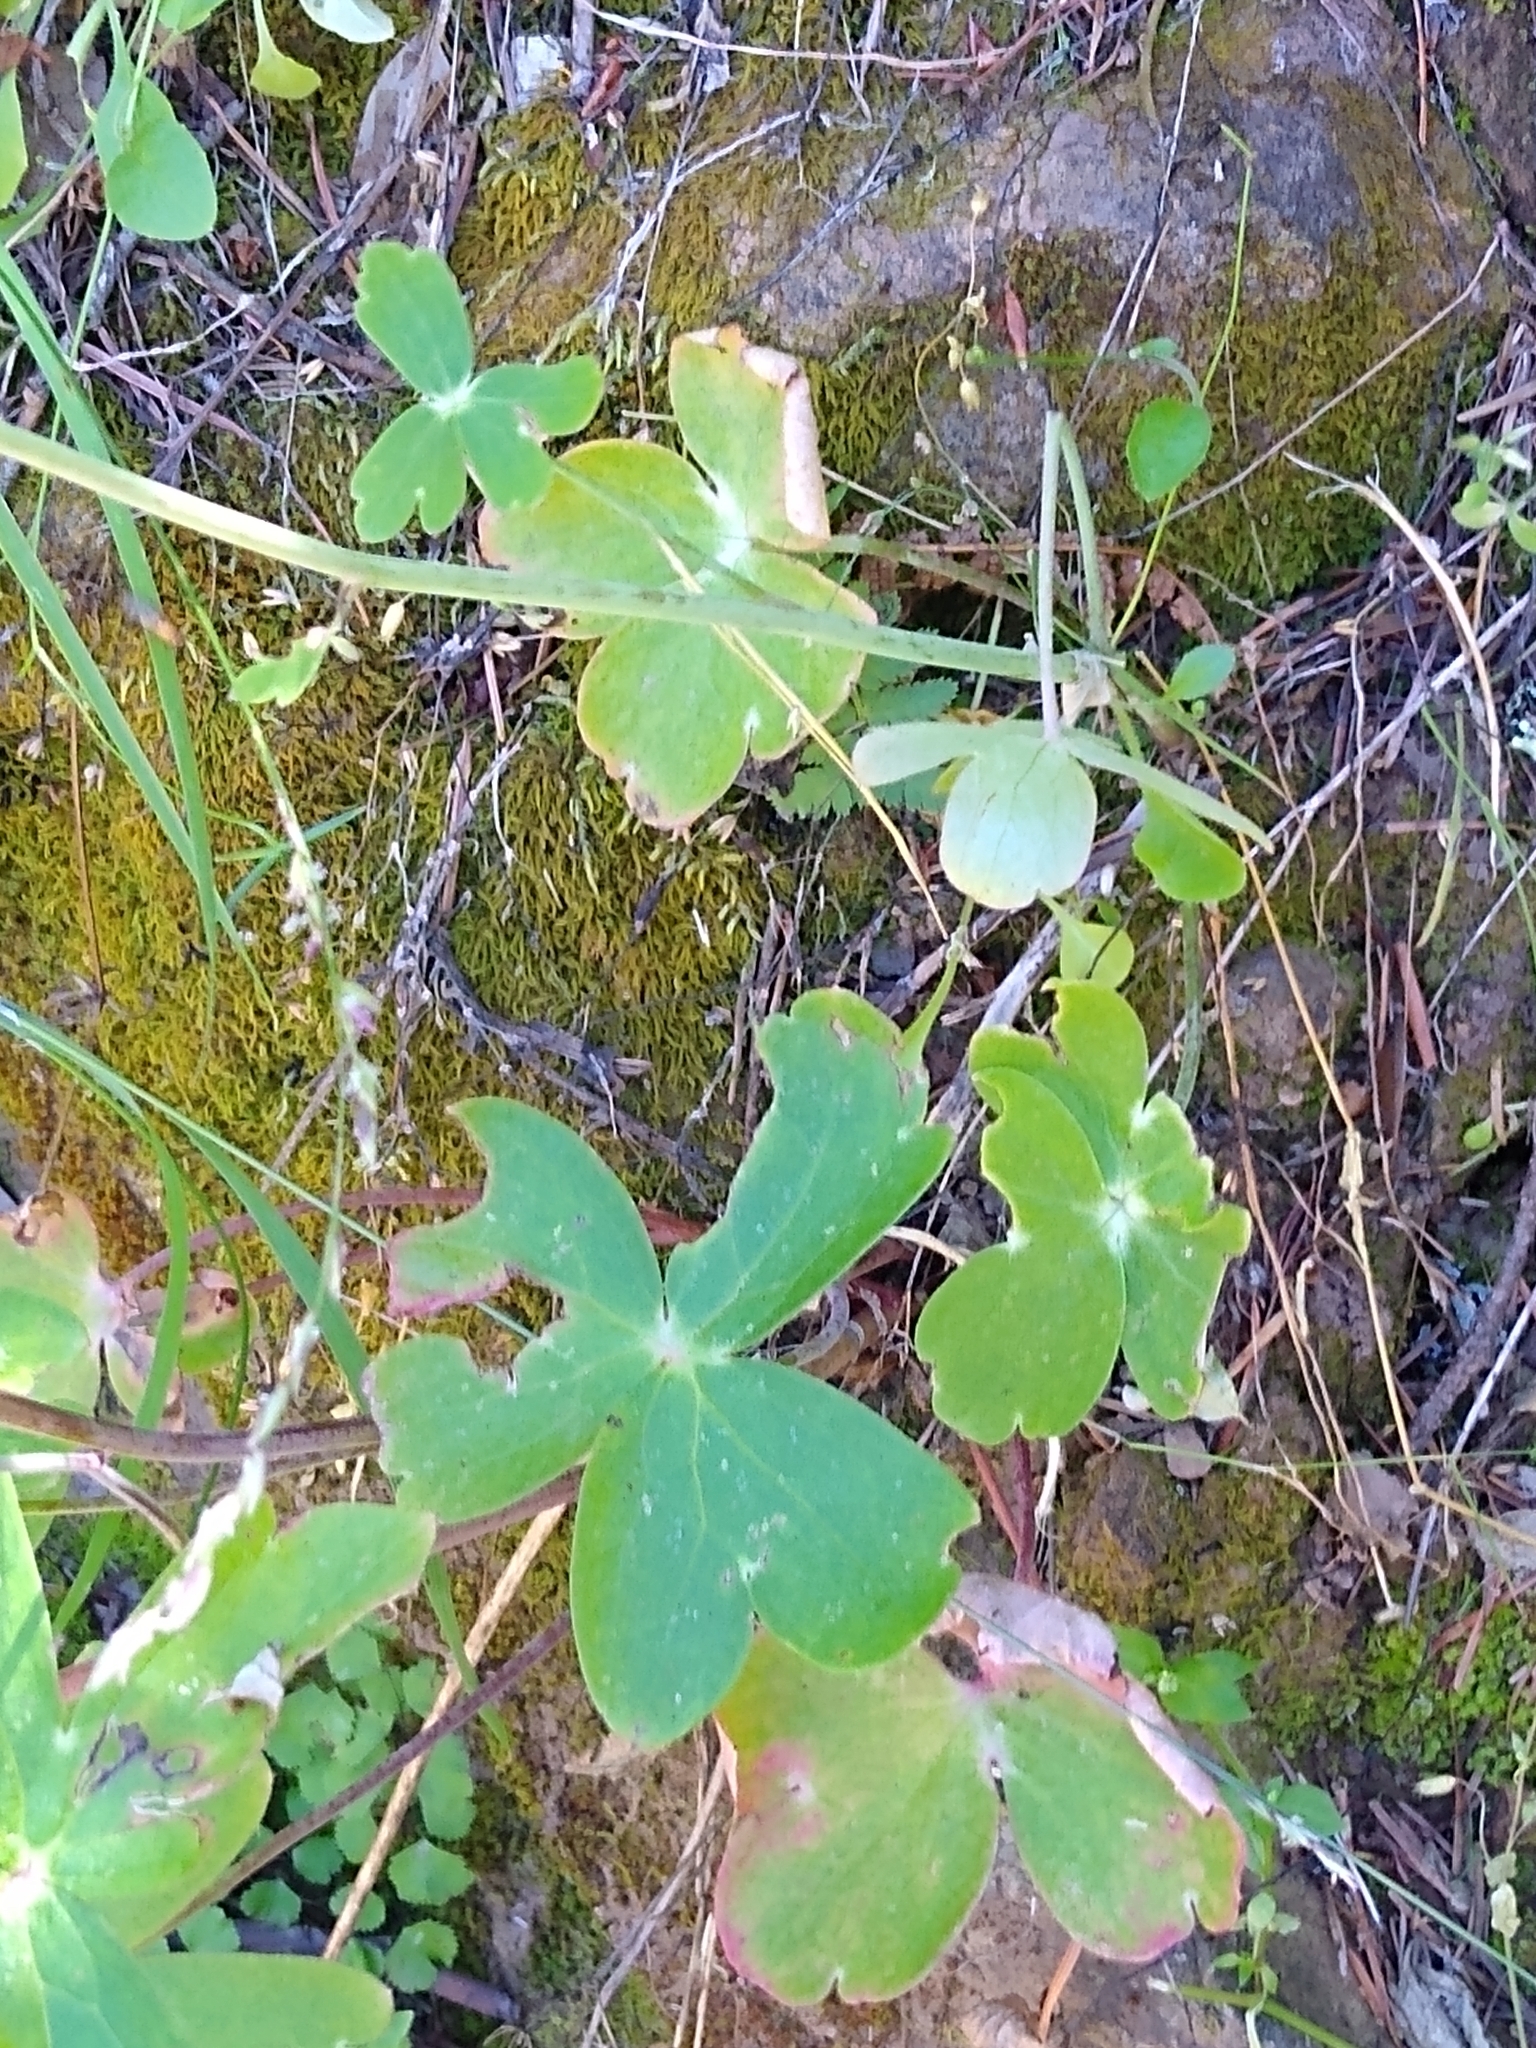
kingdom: Plantae
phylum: Tracheophyta
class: Magnoliopsida
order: Ranunculales
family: Ranunculaceae
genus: Delphinium
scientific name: Delphinium nudicaule
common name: Red larkspur
